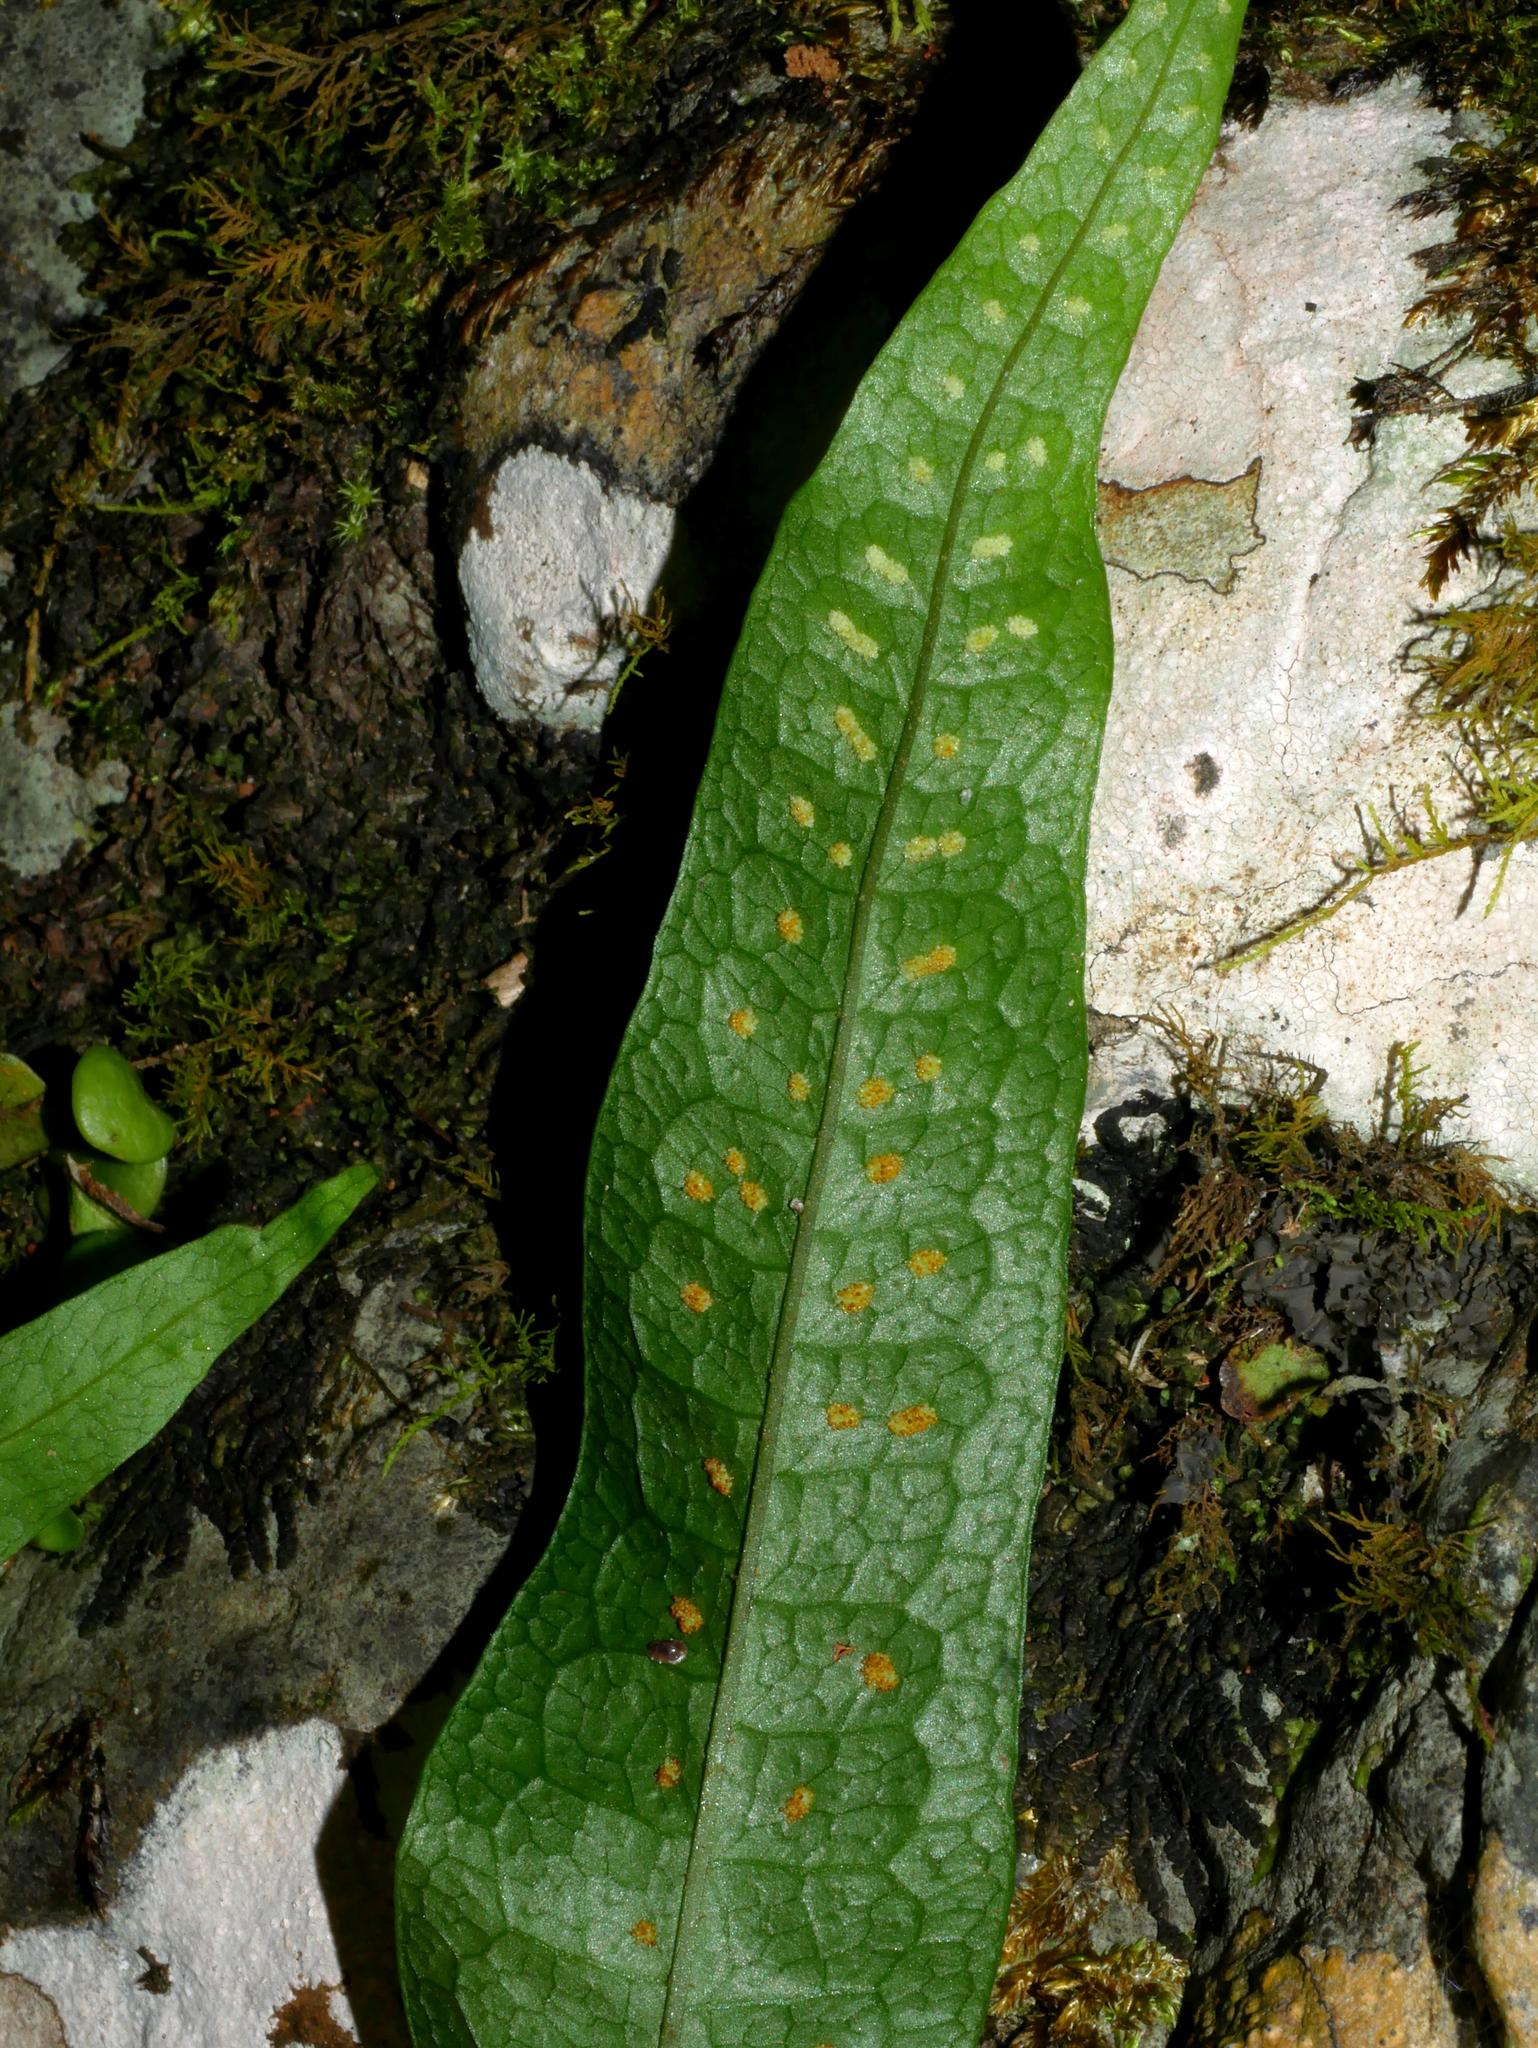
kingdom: Plantae
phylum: Tracheophyta
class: Polypodiopsida
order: Polypodiales
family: Polypodiaceae
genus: Leptochilus
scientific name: Leptochilus pteropus
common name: Java fern
